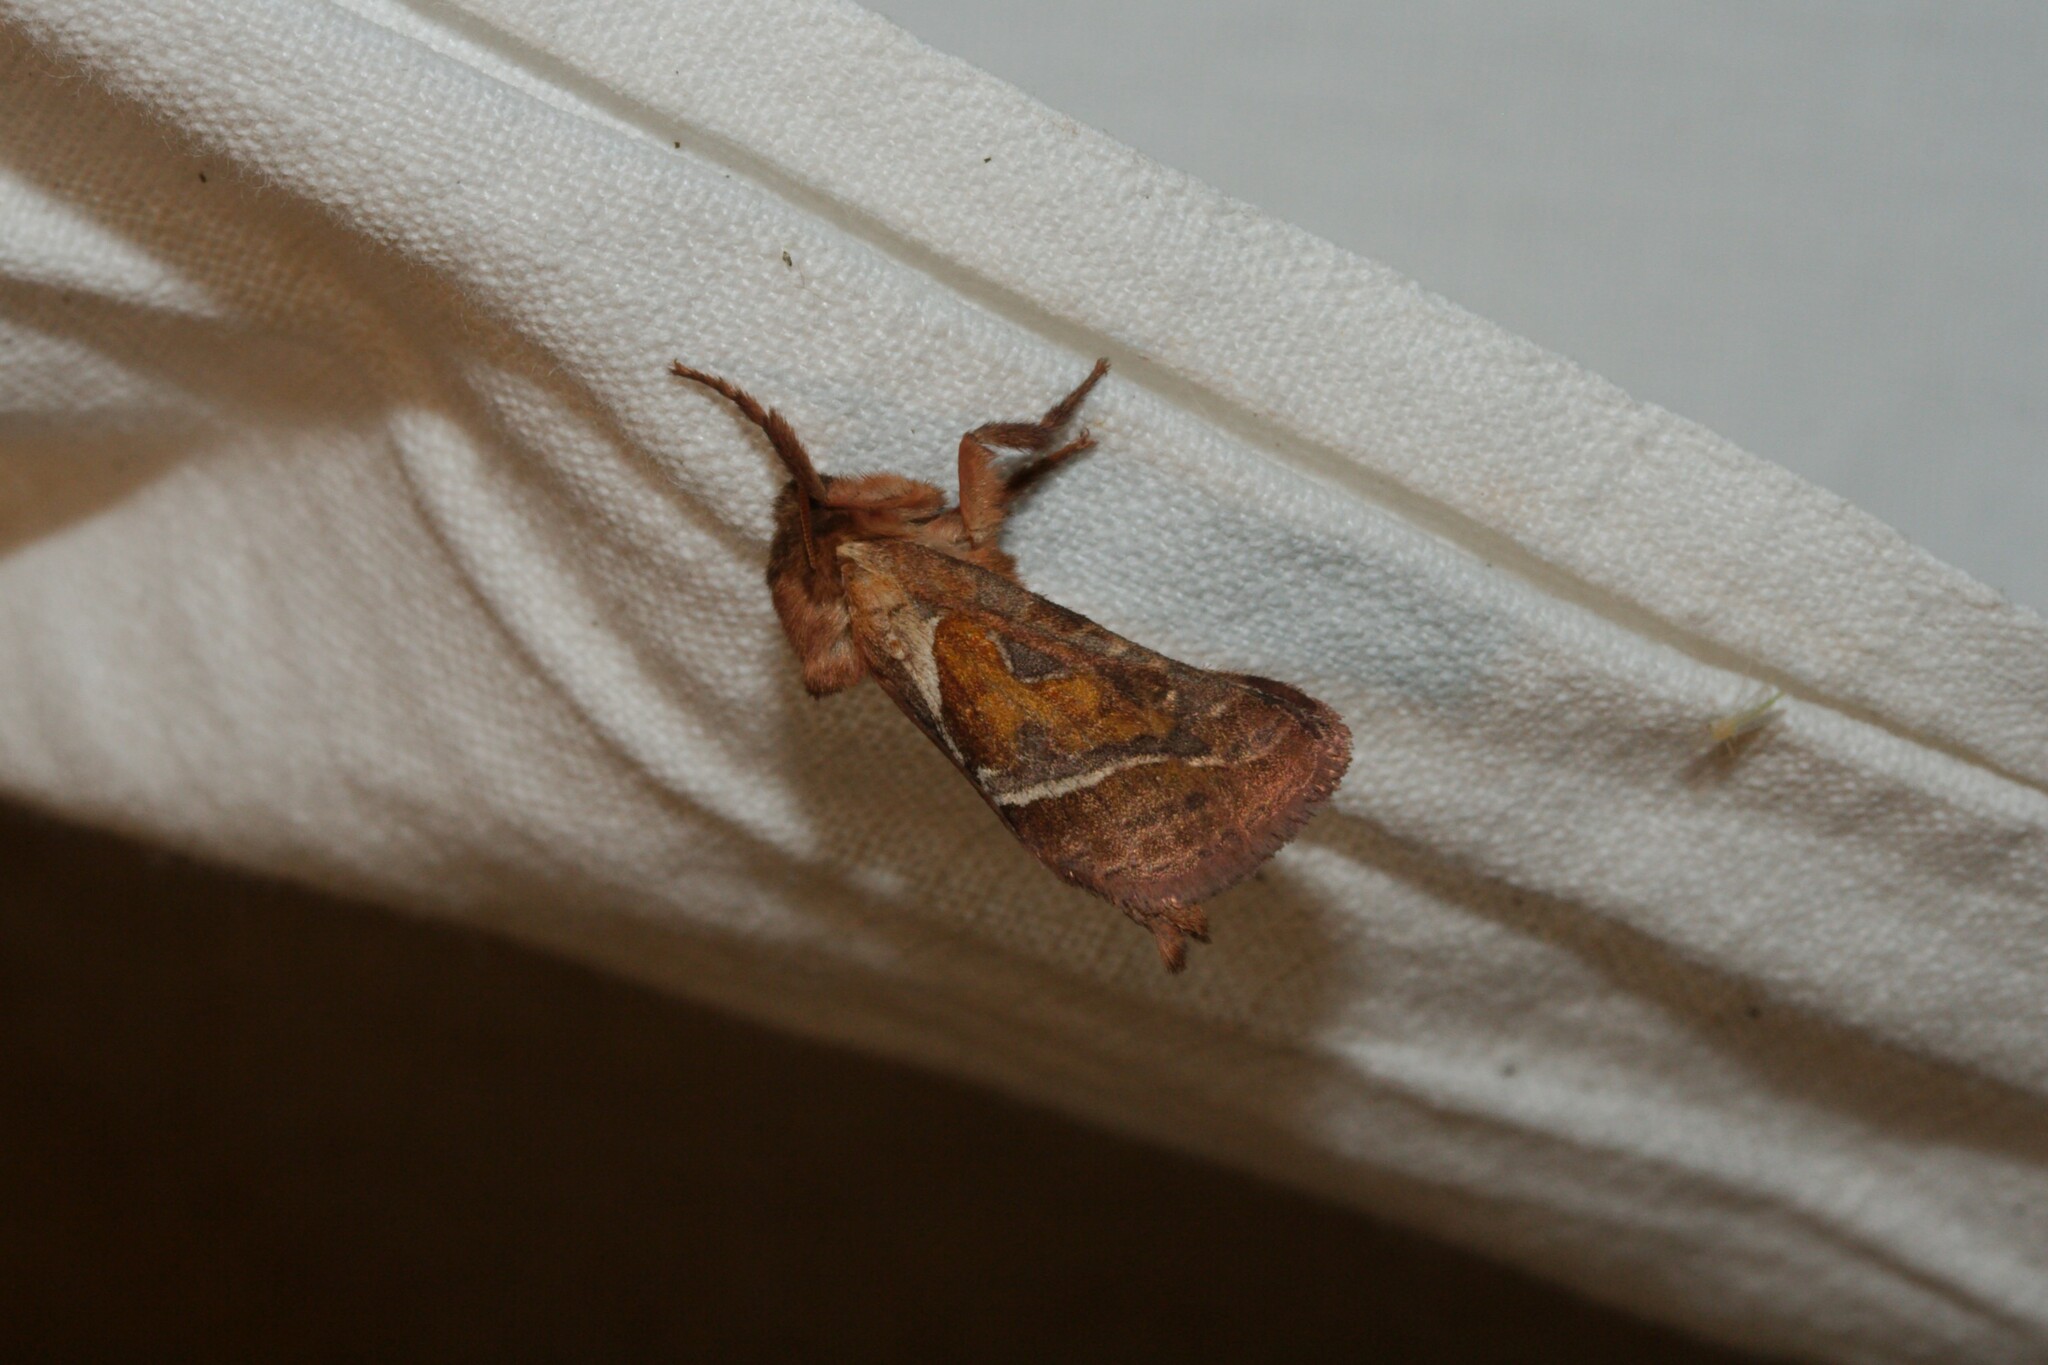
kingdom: Animalia
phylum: Arthropoda
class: Insecta
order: Lepidoptera
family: Hepialidae
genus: Triodia
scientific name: Triodia sylvina
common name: Orange swift
